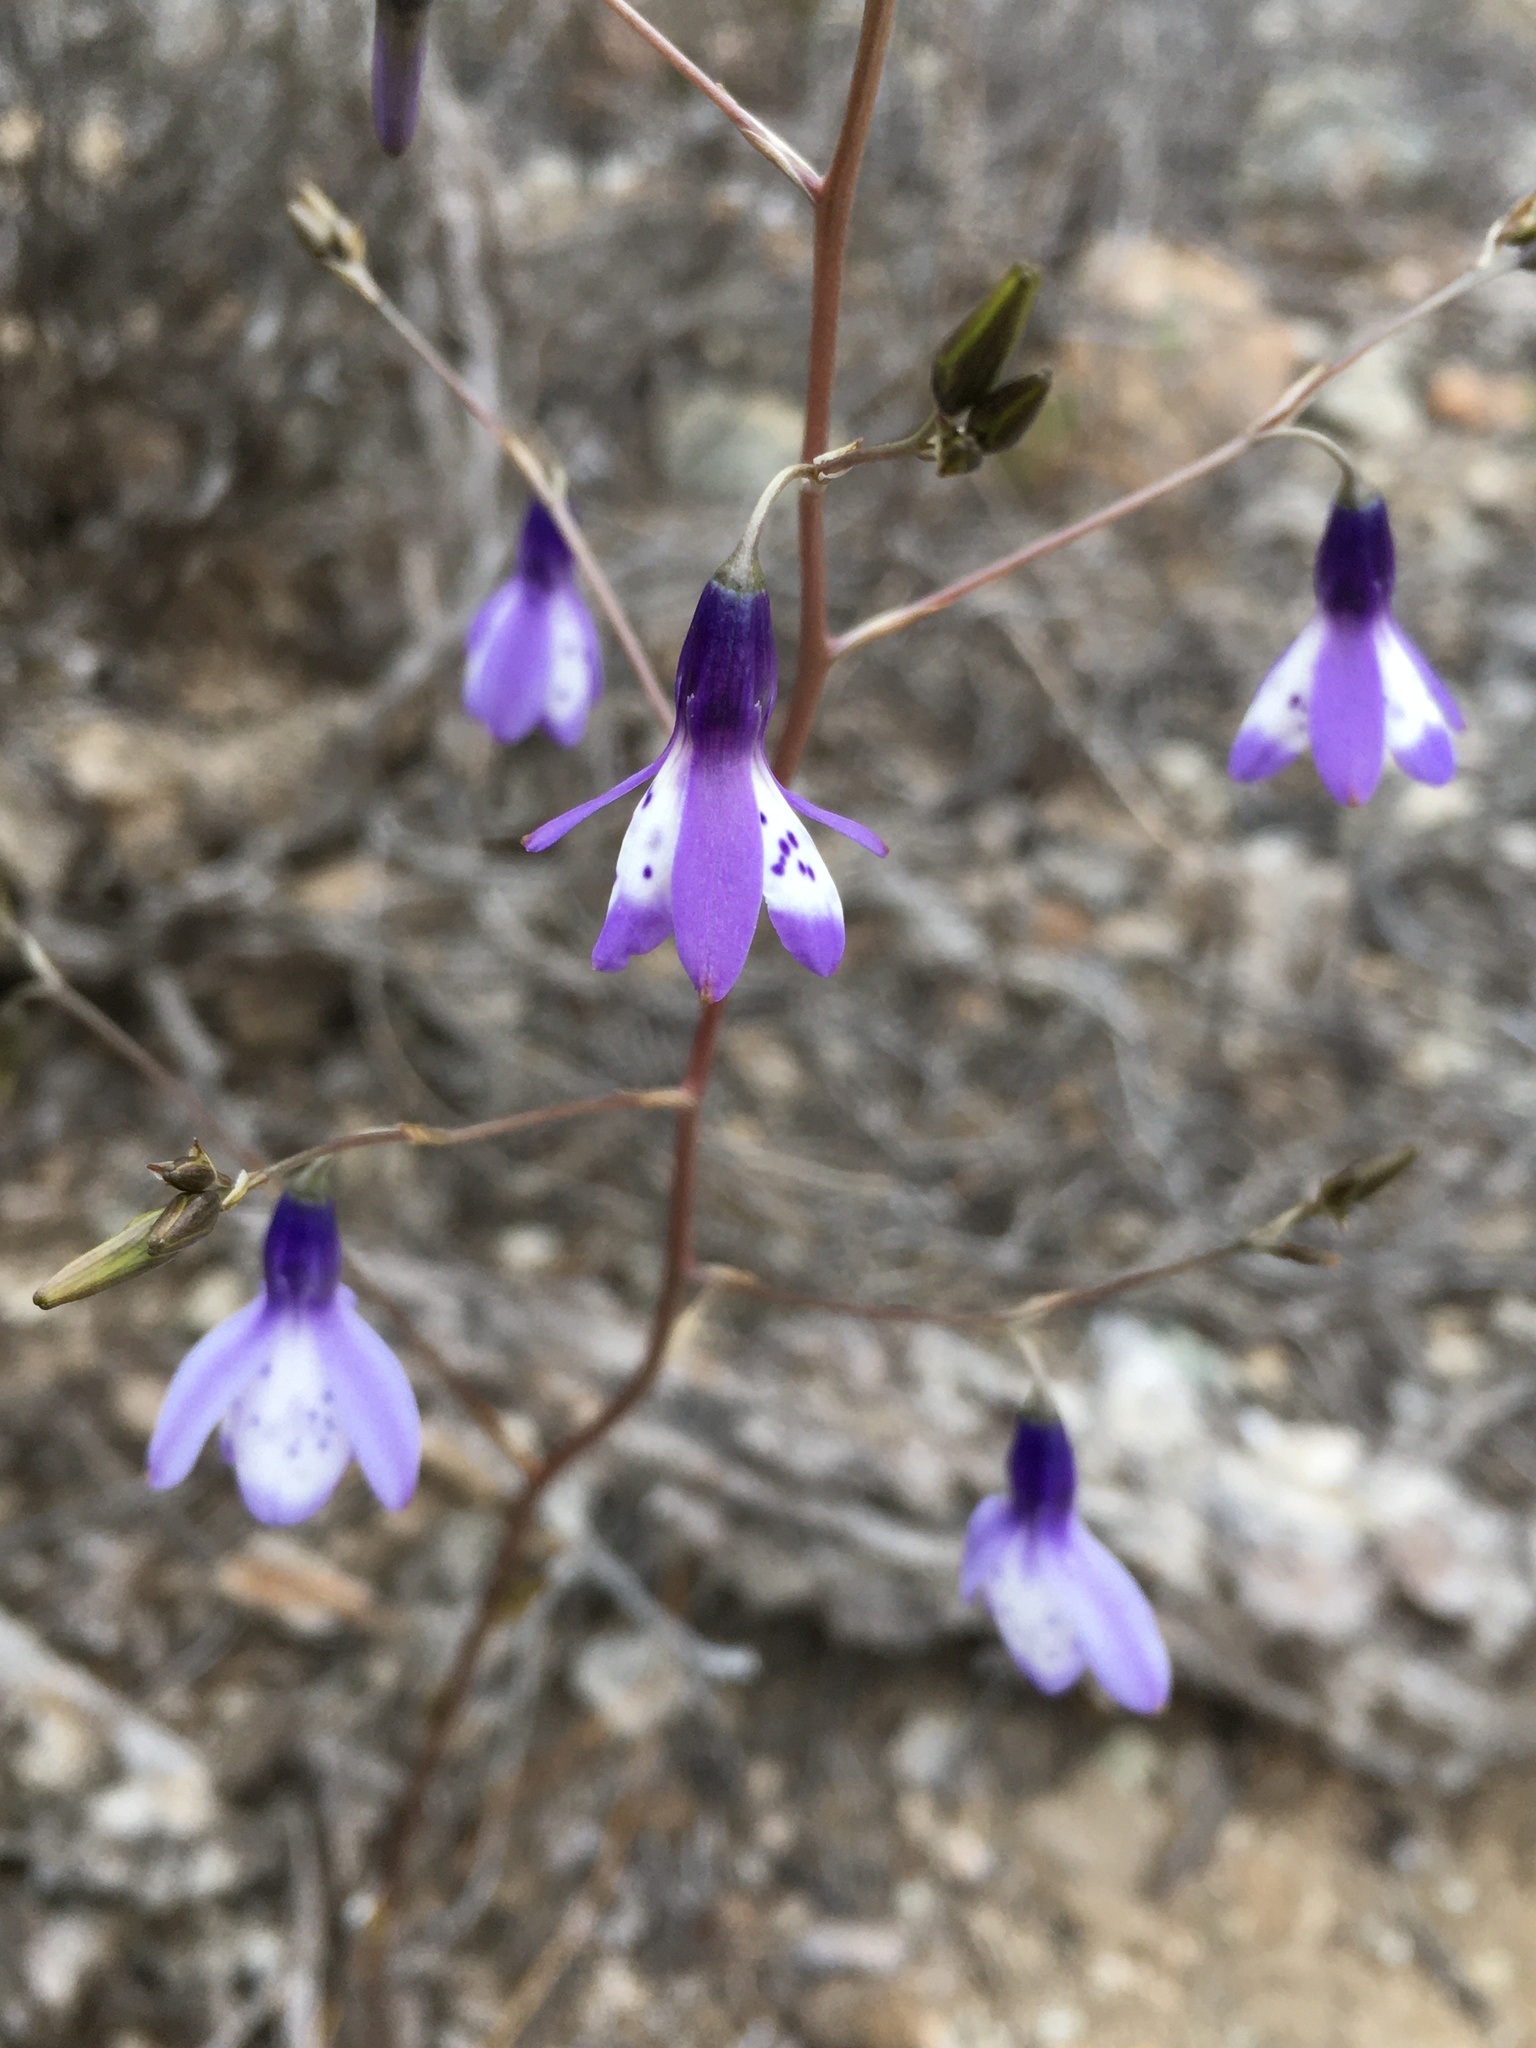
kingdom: Plantae
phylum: Tracheophyta
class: Liliopsida
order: Asparagales
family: Tecophilaeaceae
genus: Conanthera
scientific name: Conanthera campanulata
